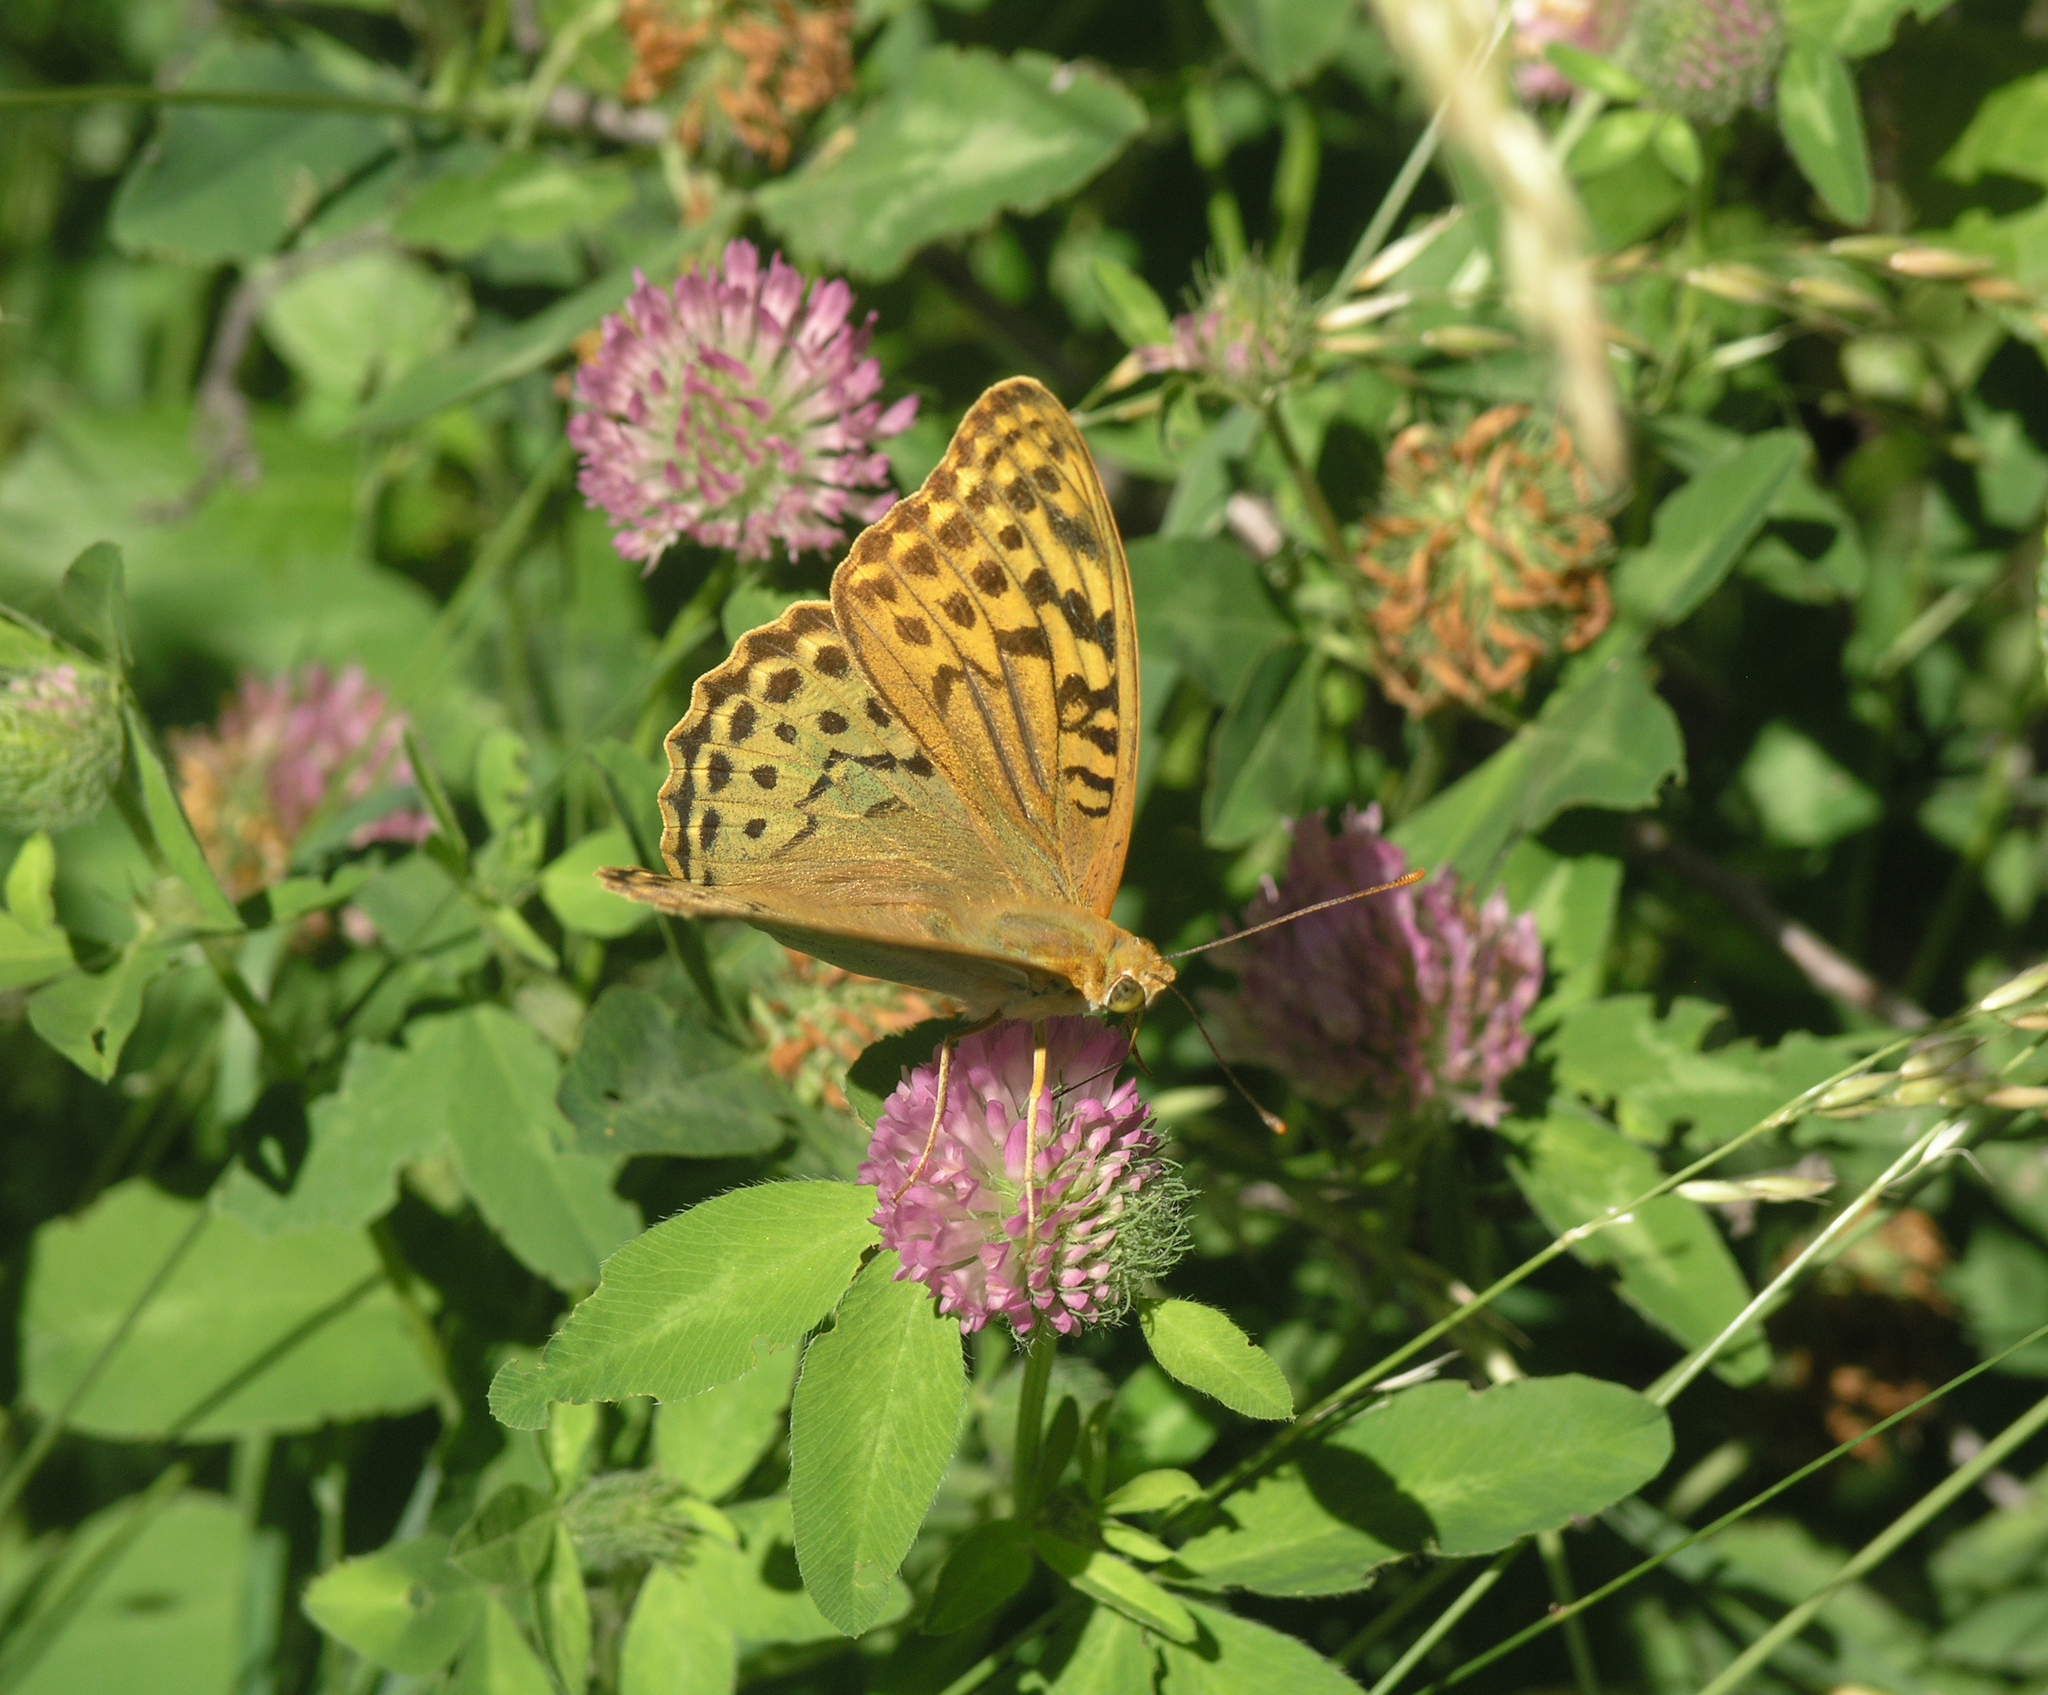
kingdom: Animalia
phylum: Arthropoda
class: Insecta
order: Lepidoptera
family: Nymphalidae
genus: Damora
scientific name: Damora pandora
